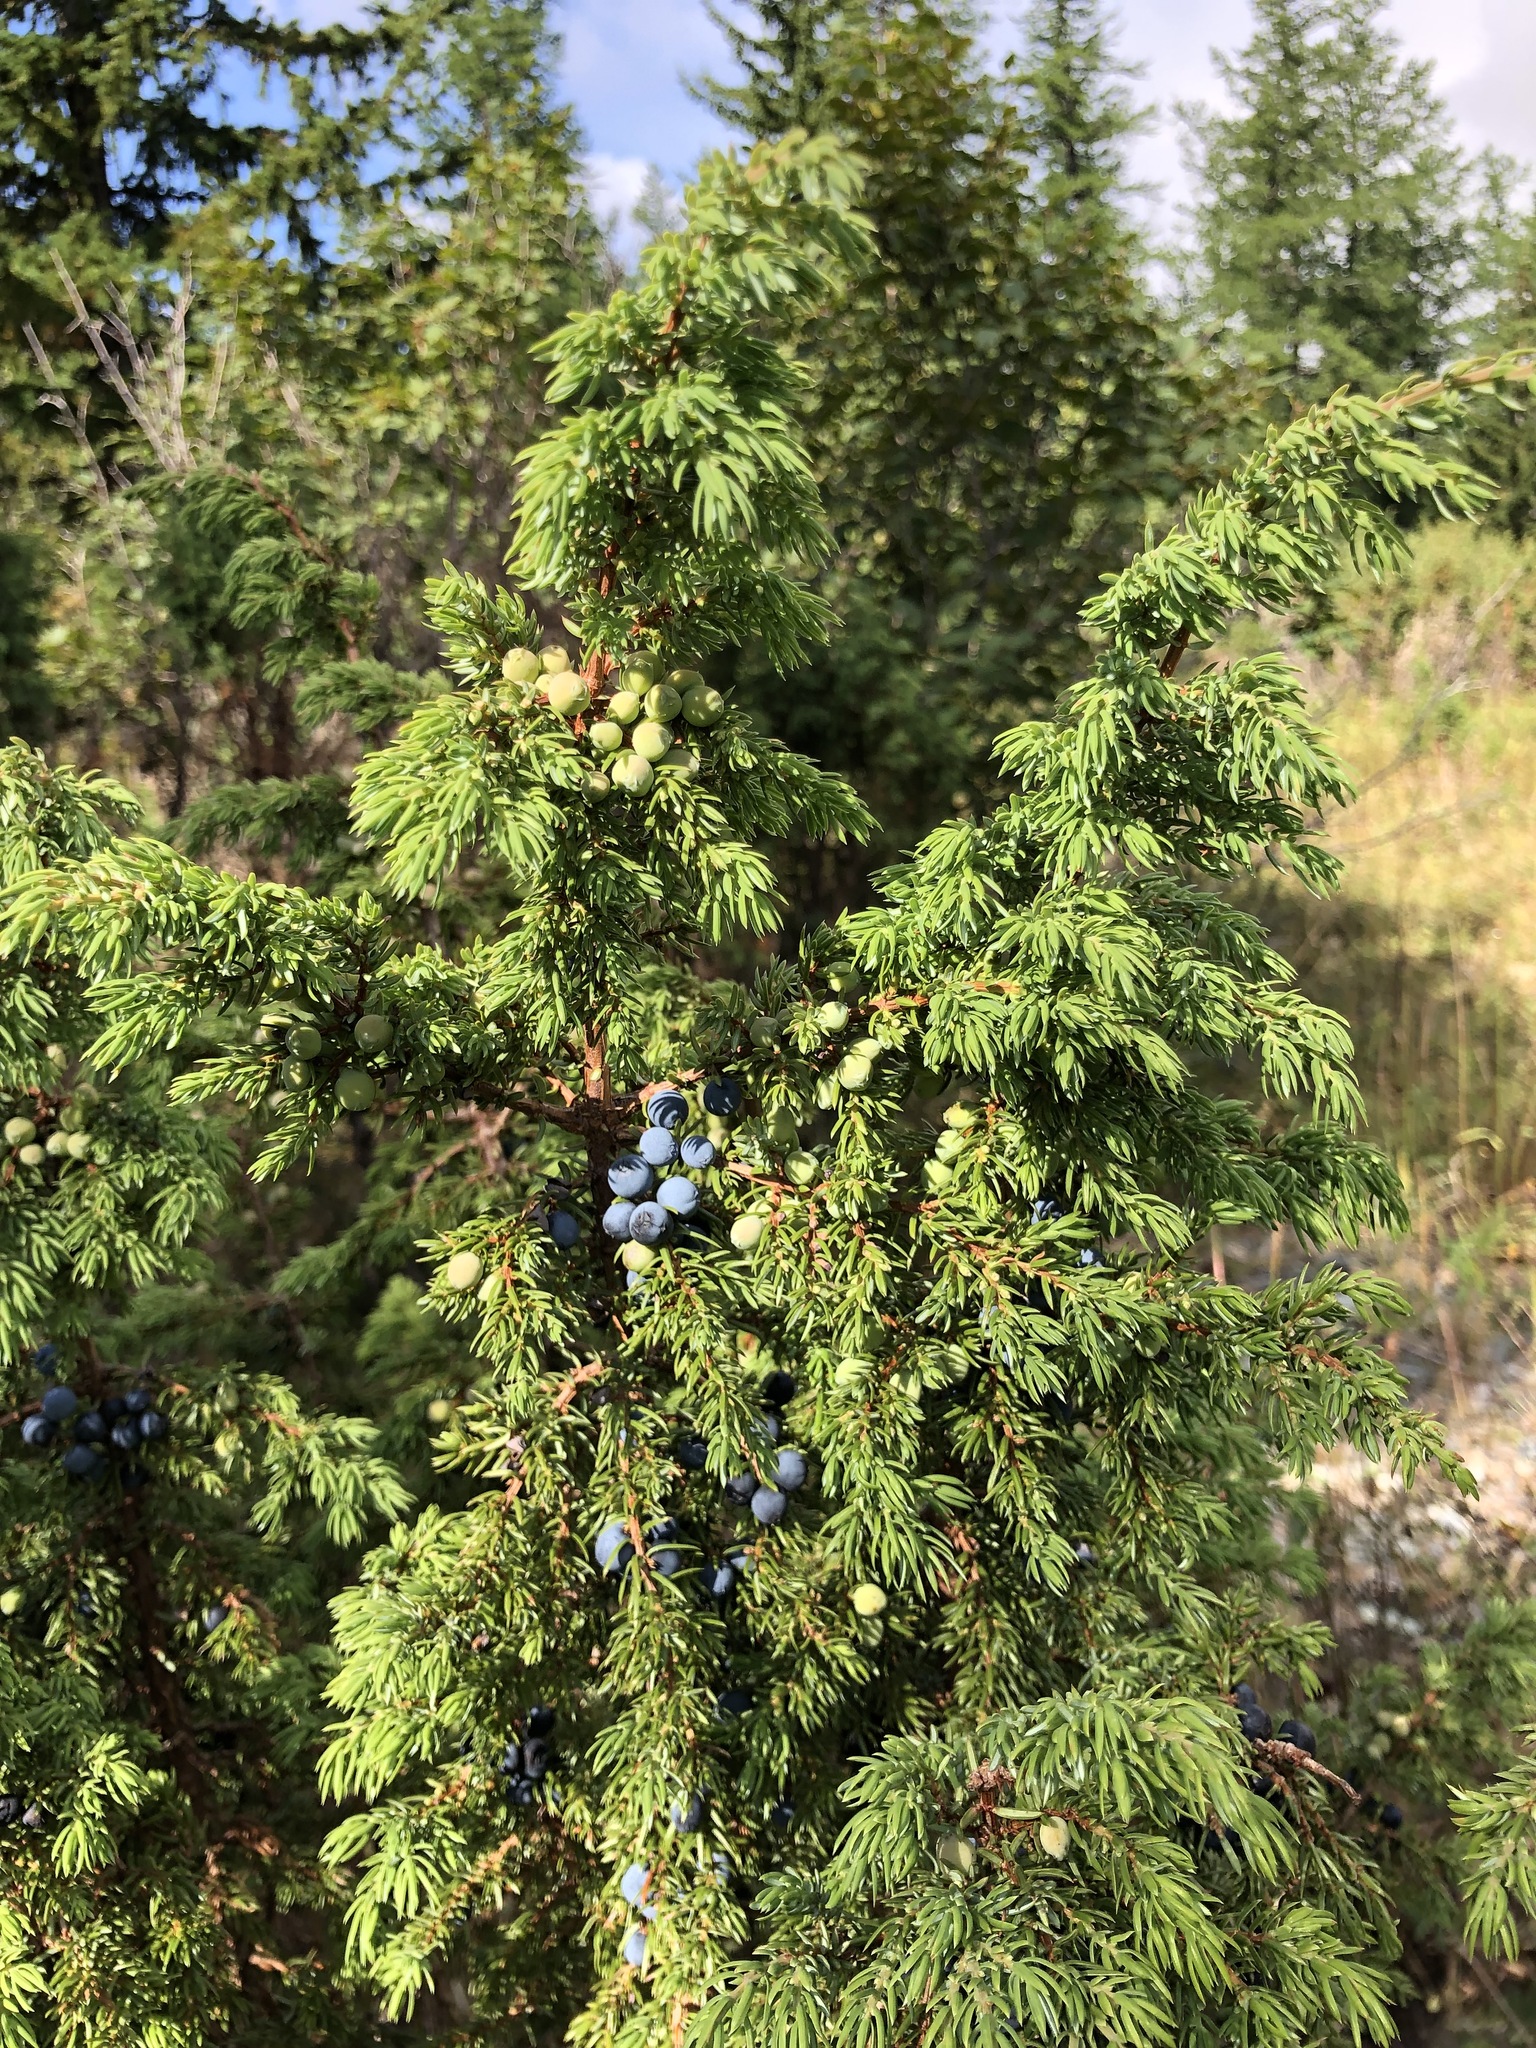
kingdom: Plantae
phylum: Tracheophyta
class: Pinopsida
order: Pinales
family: Cupressaceae
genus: Juniperus
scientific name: Juniperus communis
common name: Common juniper
